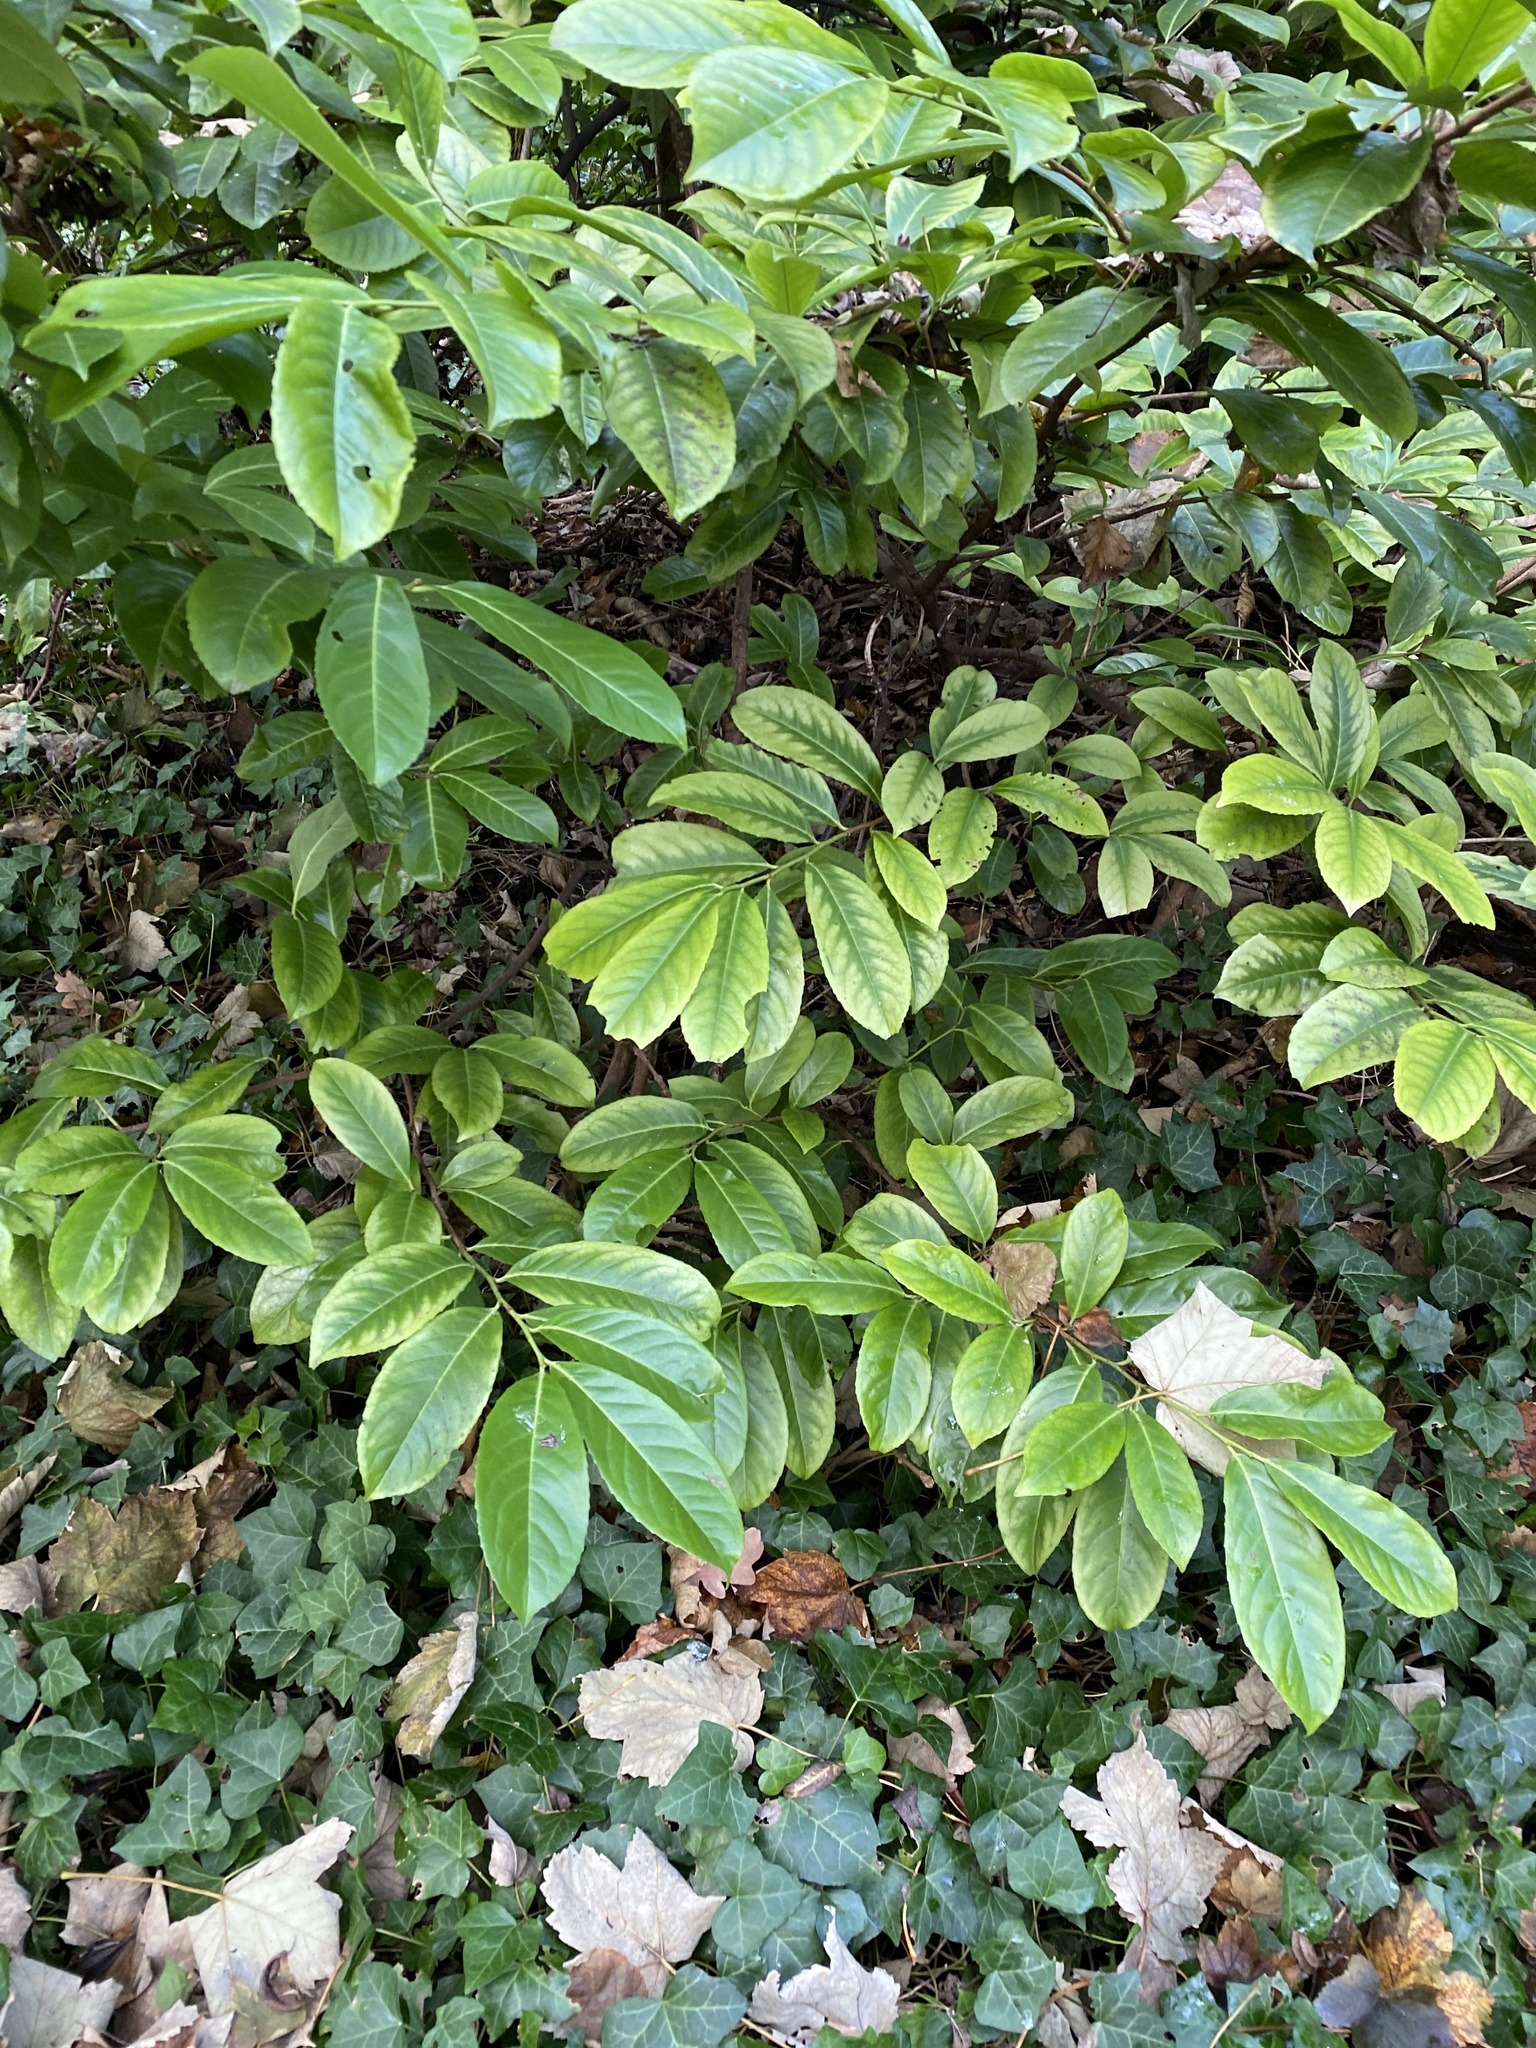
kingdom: Plantae
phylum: Tracheophyta
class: Magnoliopsida
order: Rosales
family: Rosaceae
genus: Prunus
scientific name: Prunus laurocerasus
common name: Cherry laurel
